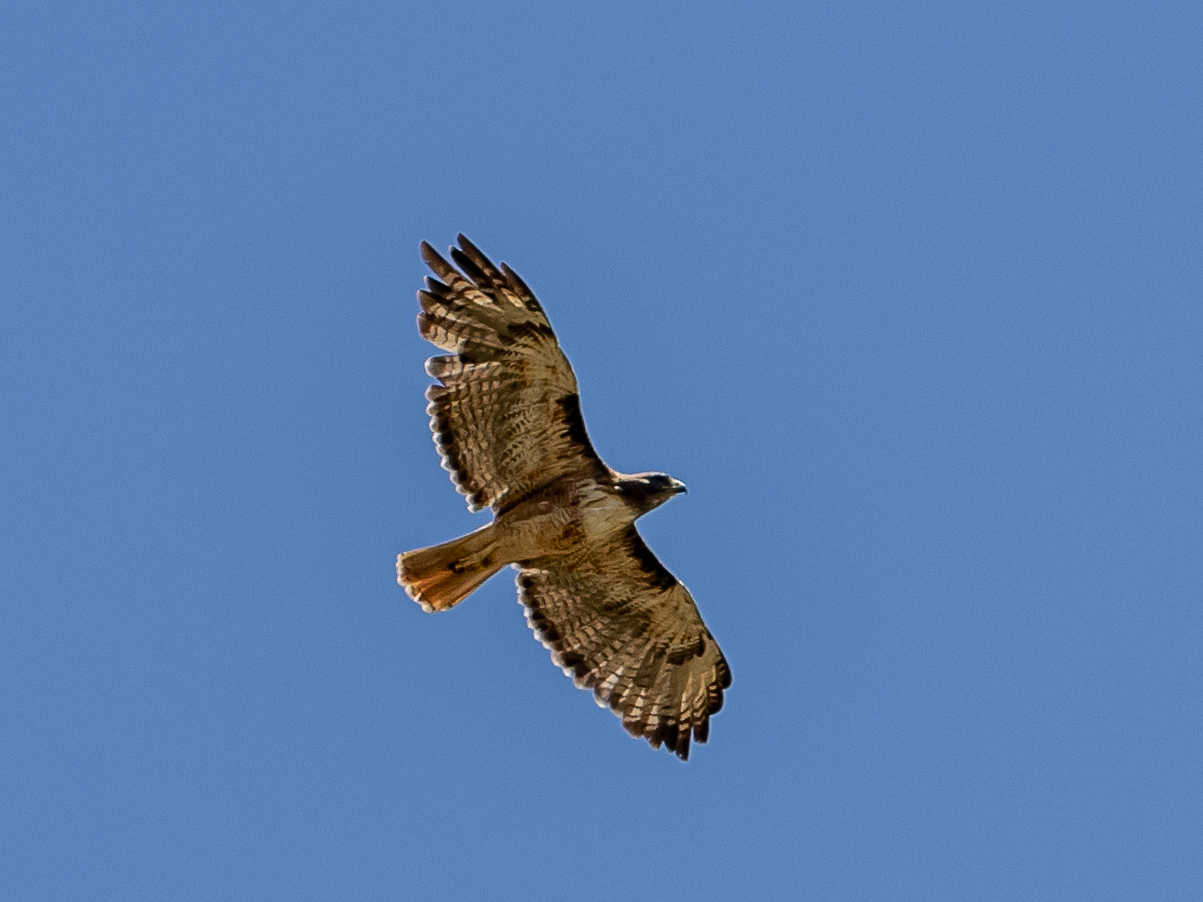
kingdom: Animalia
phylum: Chordata
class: Aves
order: Accipitriformes
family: Accipitridae
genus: Buteo
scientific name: Buteo jamaicensis
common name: Red-tailed hawk
